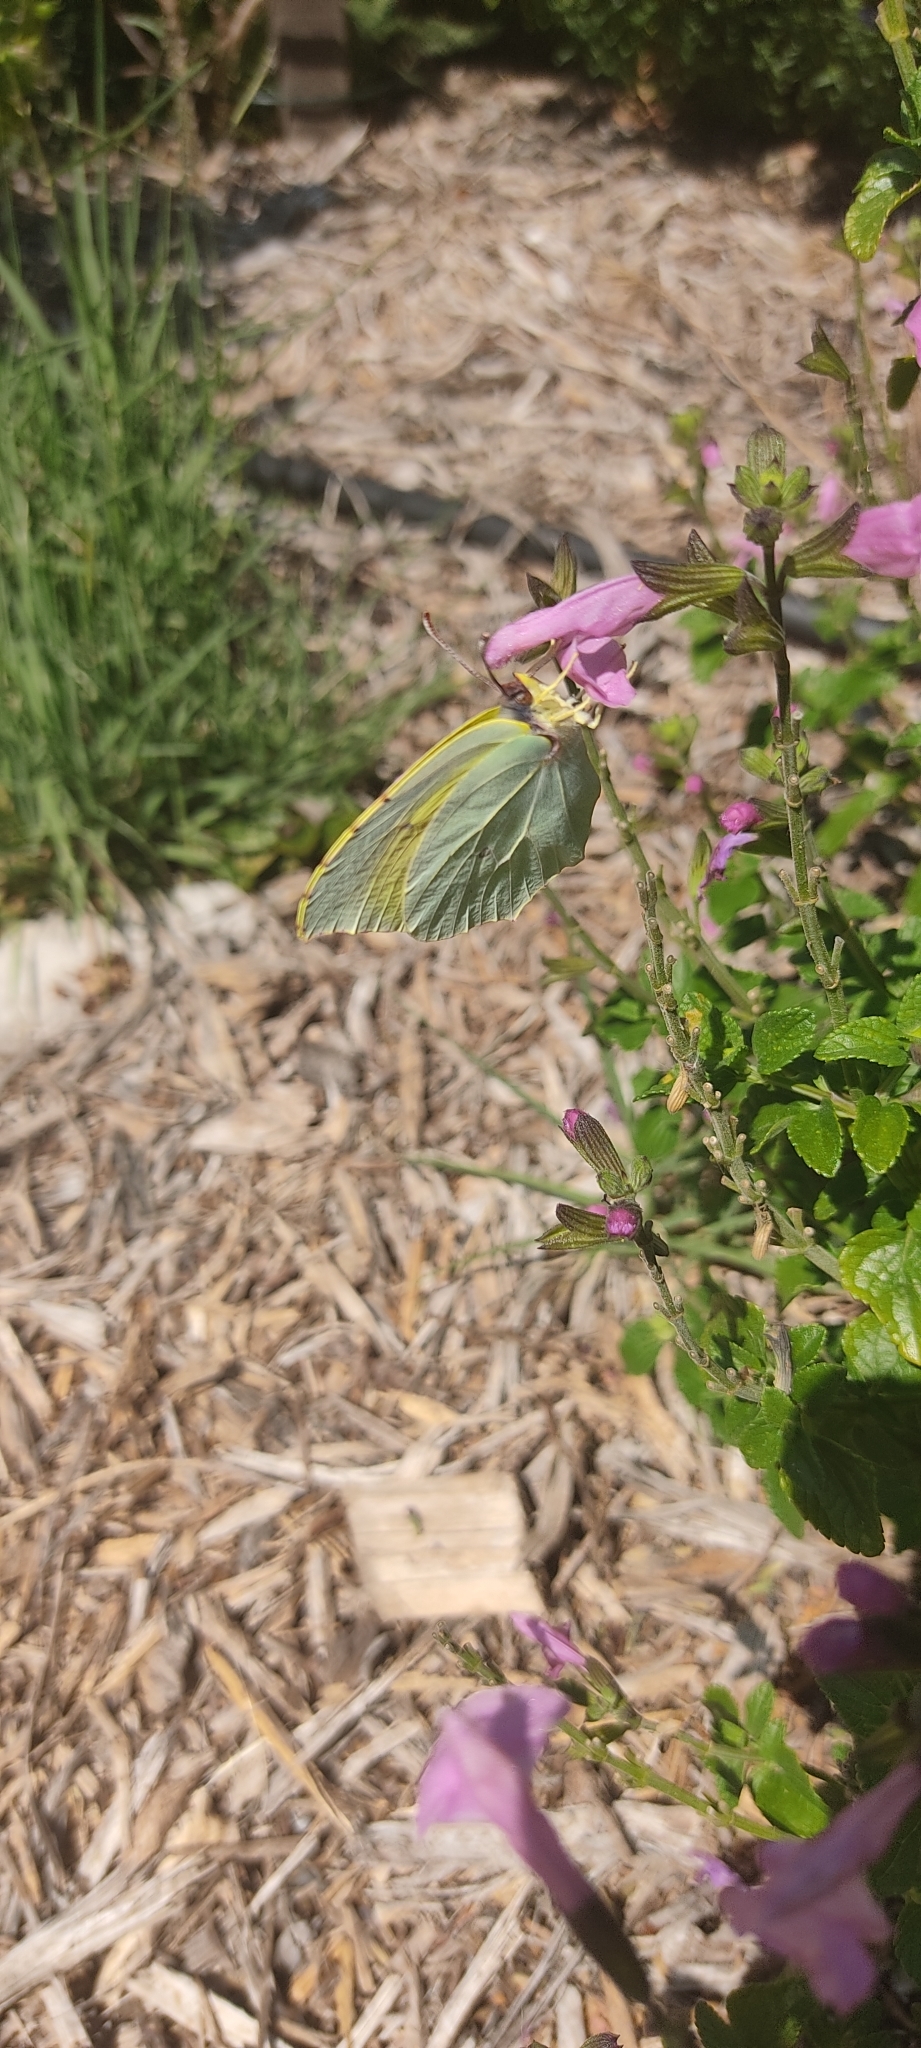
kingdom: Animalia
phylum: Arthropoda
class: Insecta
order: Lepidoptera
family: Pieridae
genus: Gonepteryx
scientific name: Gonepteryx cleopatra
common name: Cleopatra
